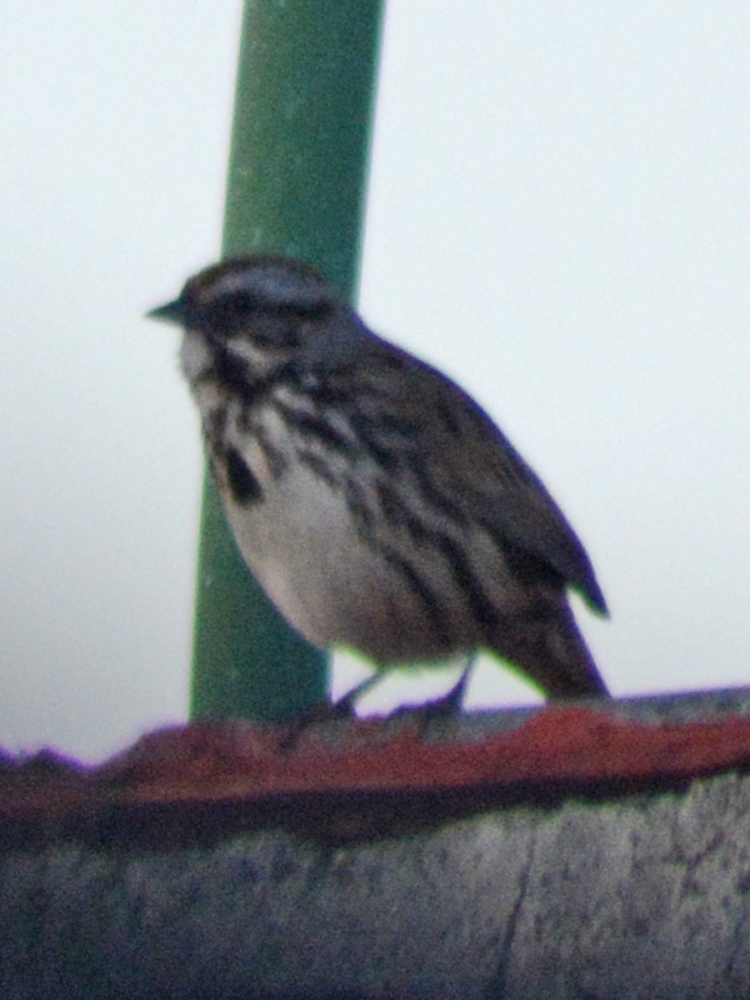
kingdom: Animalia
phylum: Chordata
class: Aves
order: Passeriformes
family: Passerellidae
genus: Melospiza
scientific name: Melospiza melodia
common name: Song sparrow
